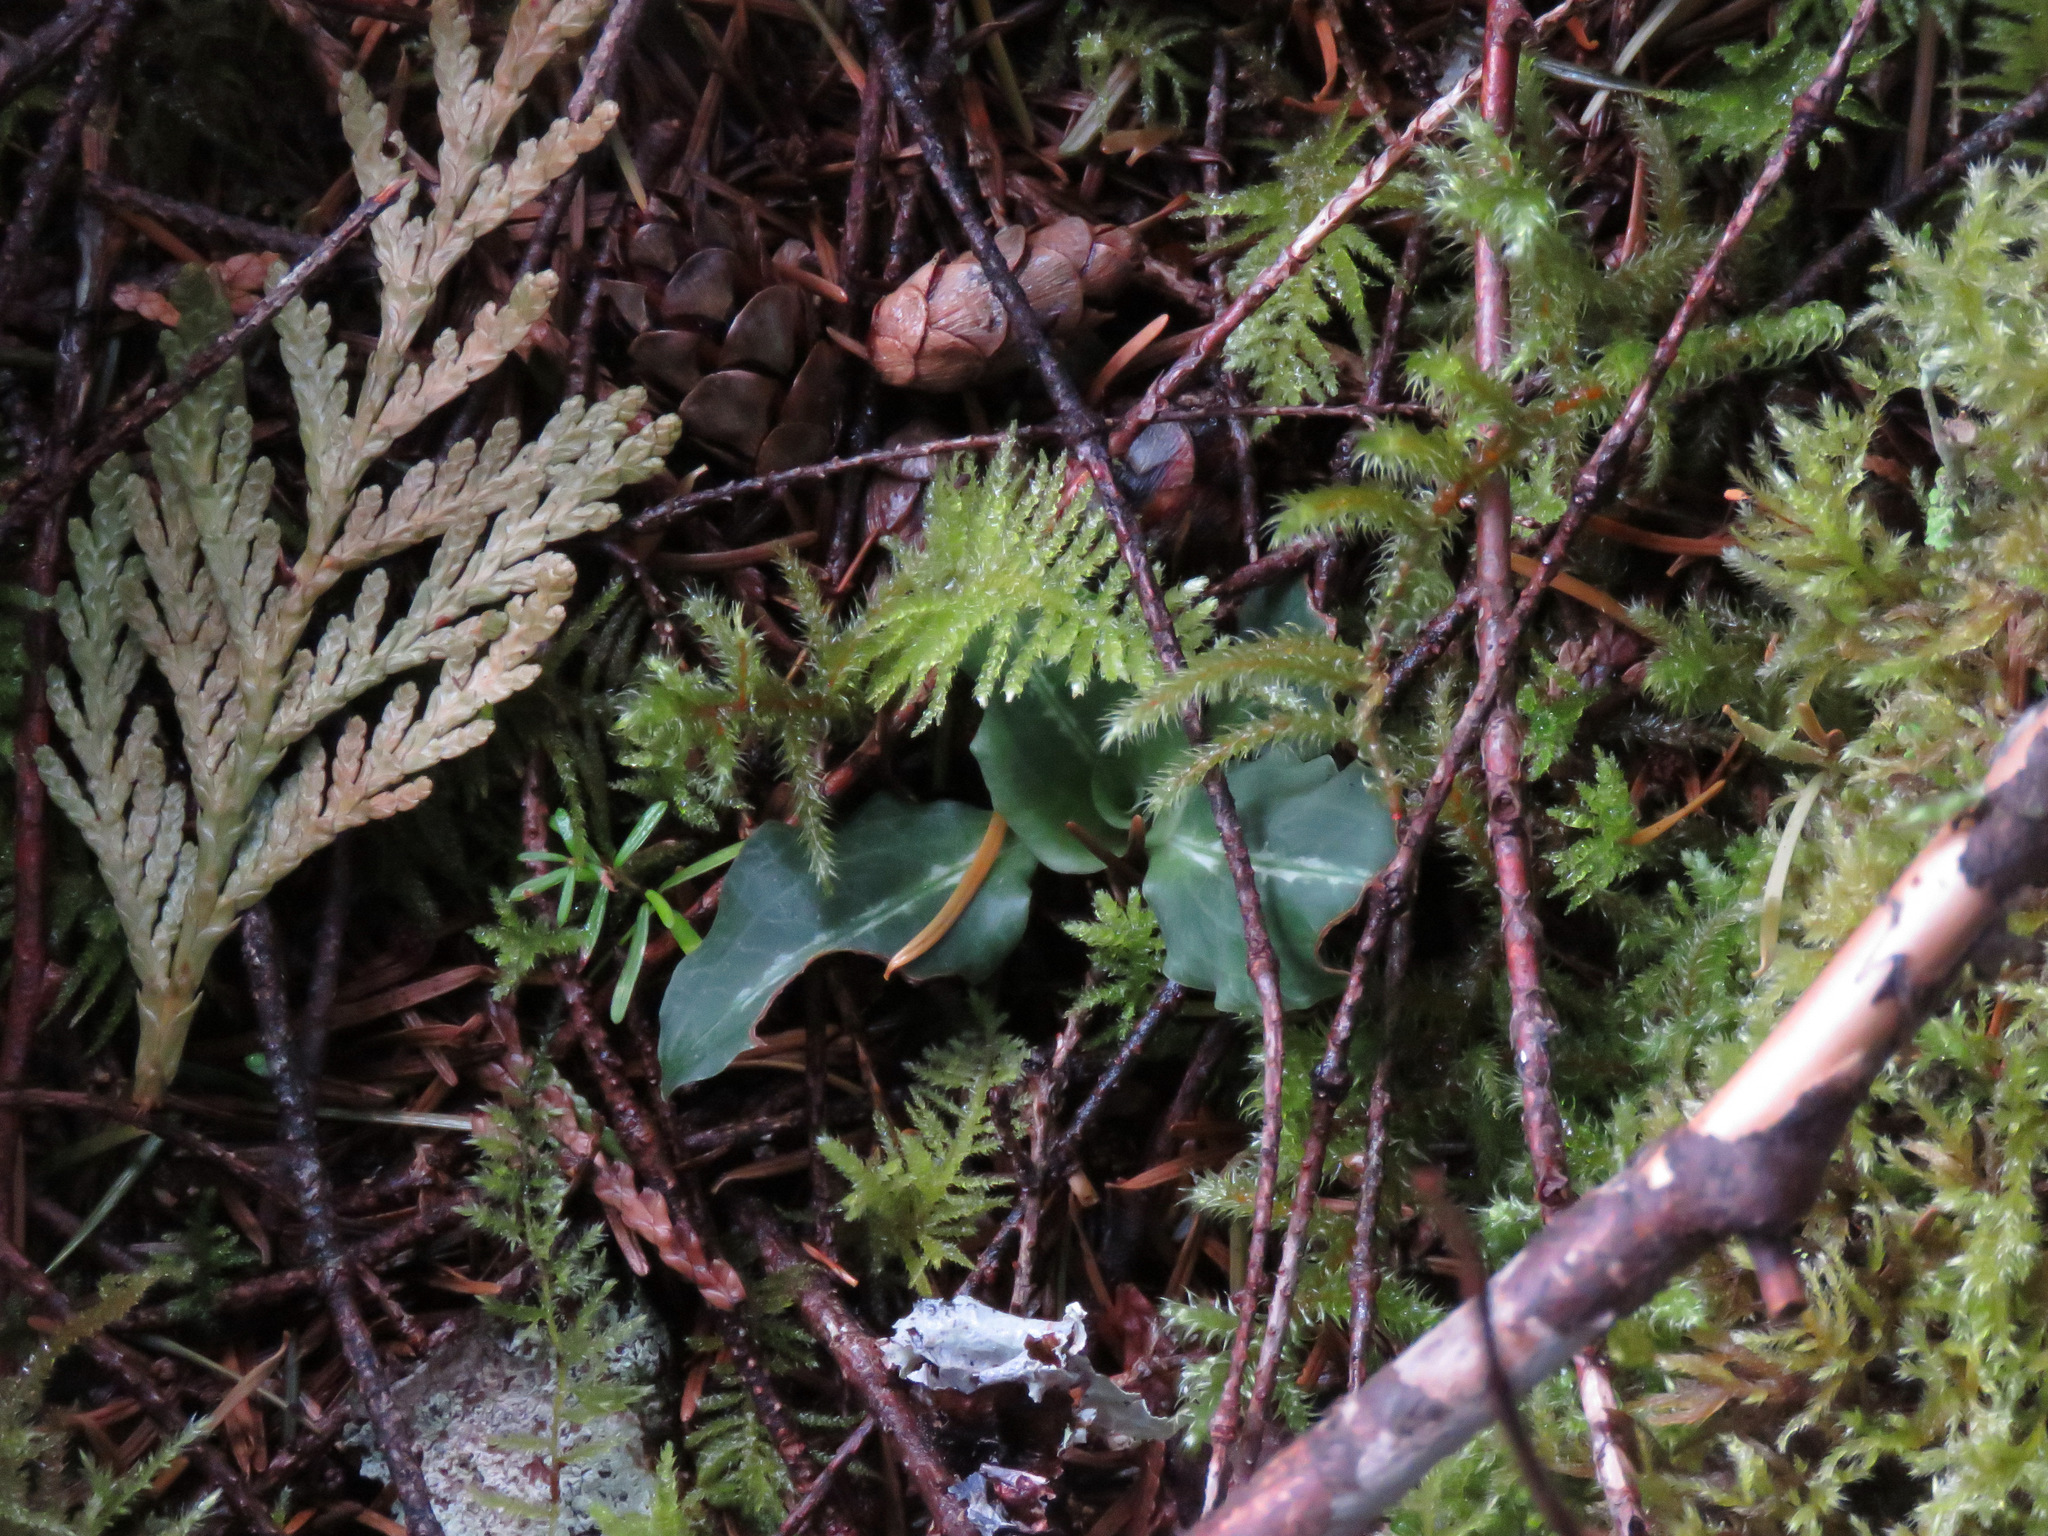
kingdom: Plantae
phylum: Tracheophyta
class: Liliopsida
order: Asparagales
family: Orchidaceae
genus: Goodyera
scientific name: Goodyera oblongifolia
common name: Giant rattlesnake-plantain
